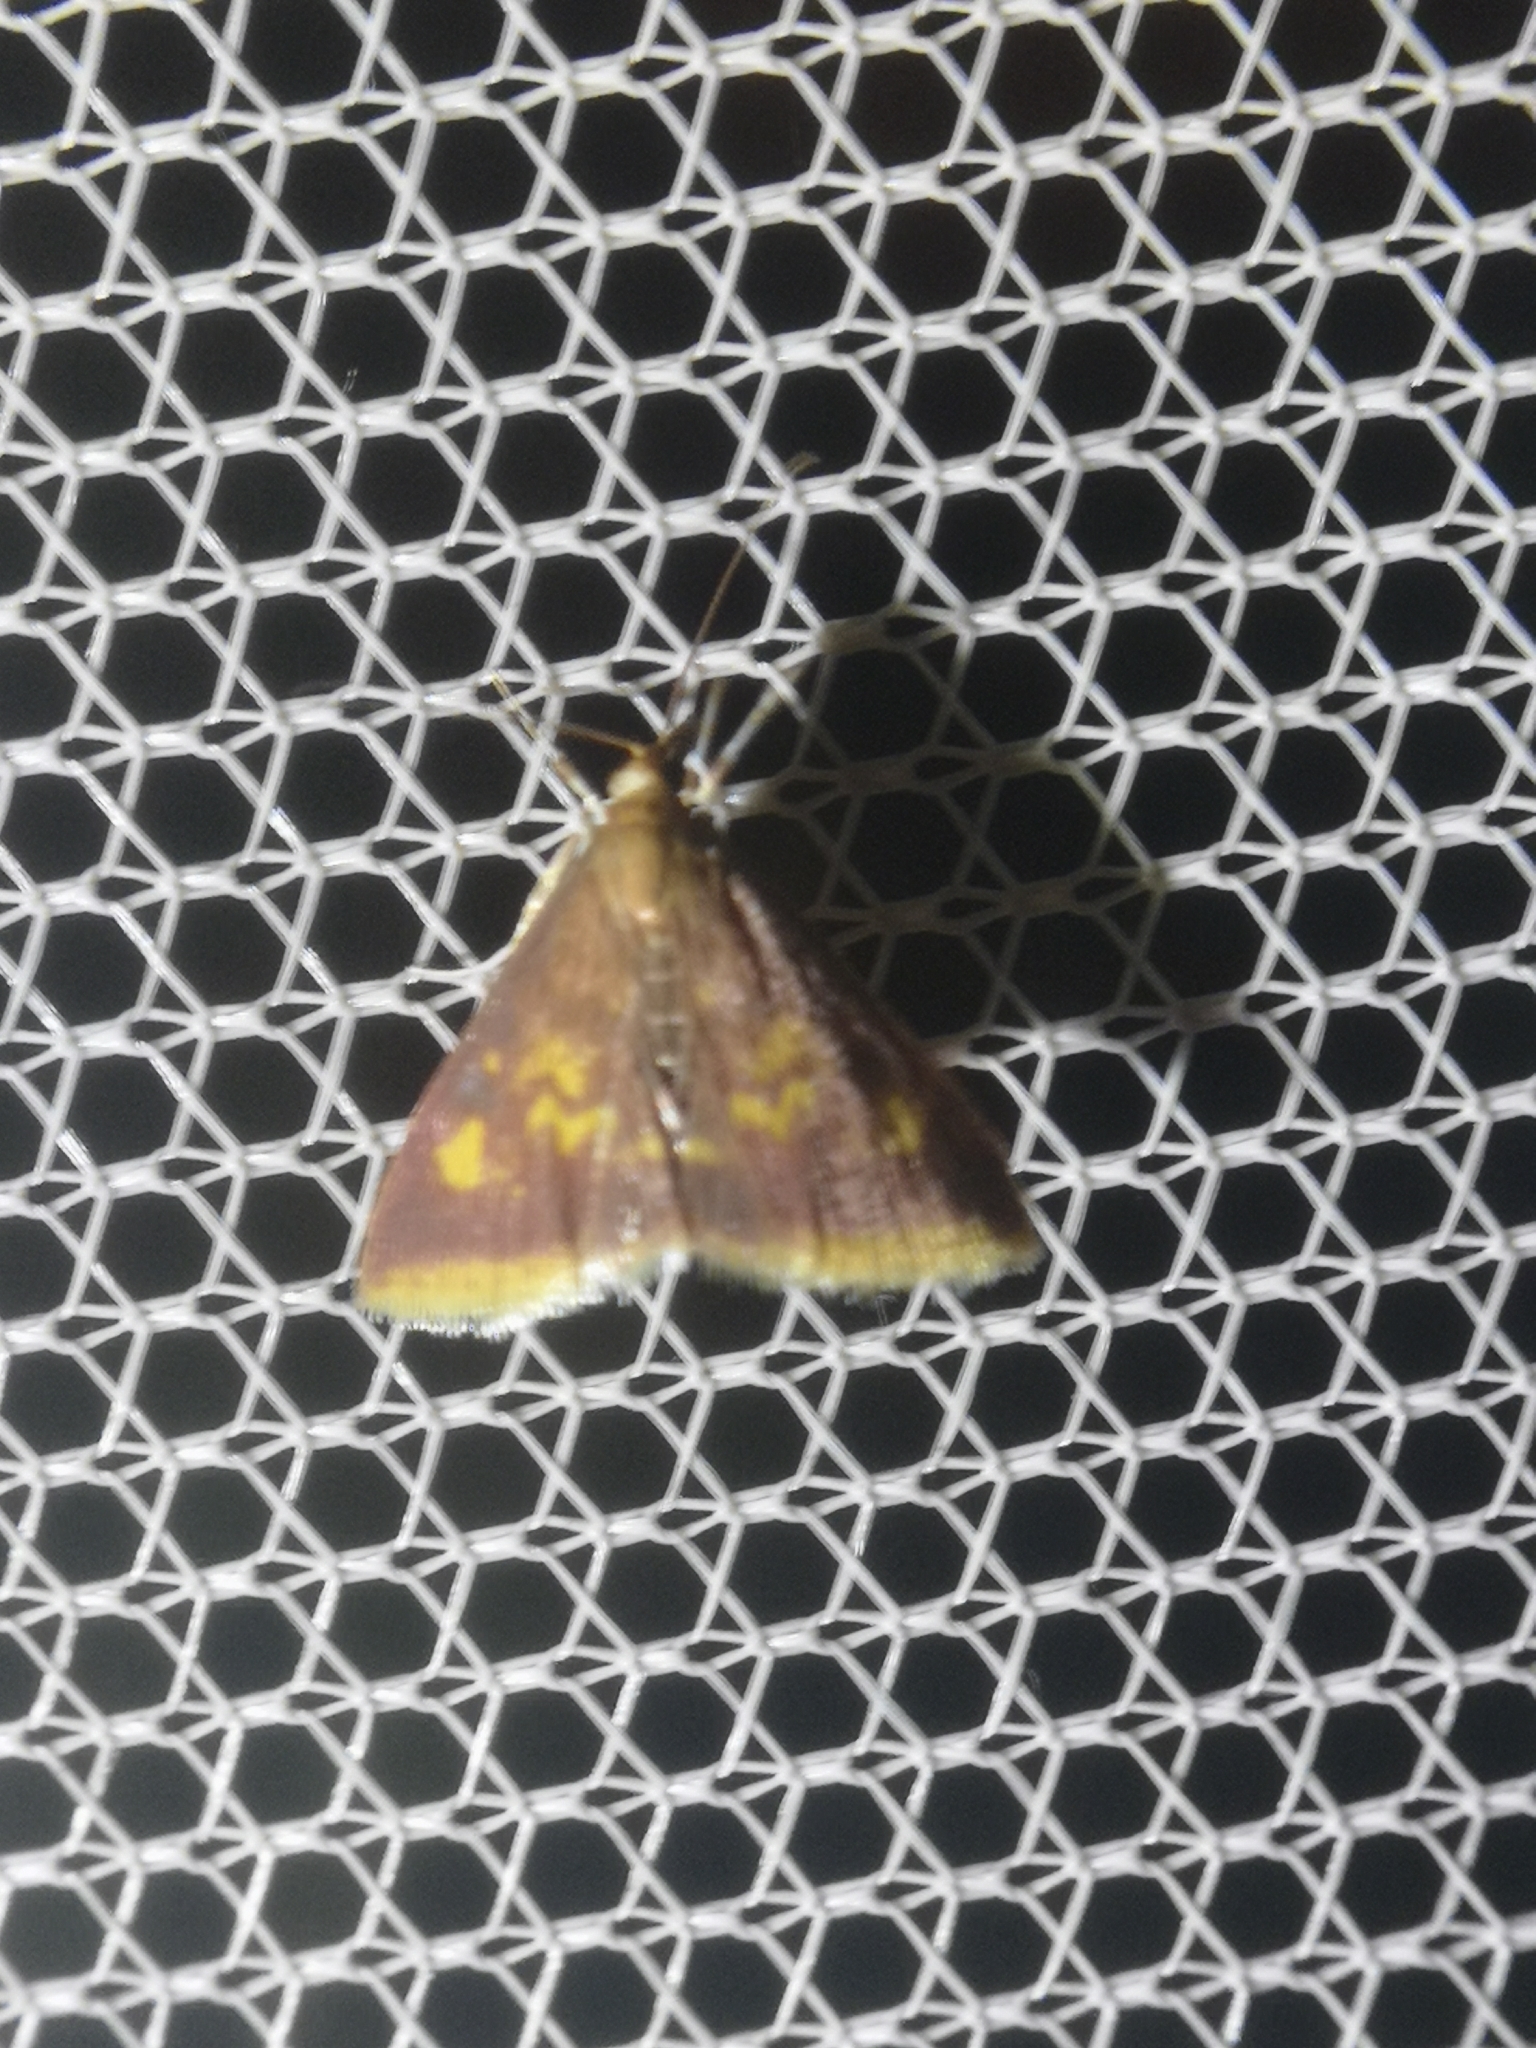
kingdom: Animalia
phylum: Arthropoda
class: Insecta
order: Lepidoptera
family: Crambidae
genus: Pyrausta
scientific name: Pyrausta acrionalis
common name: Mint-loving pyrausta moth
